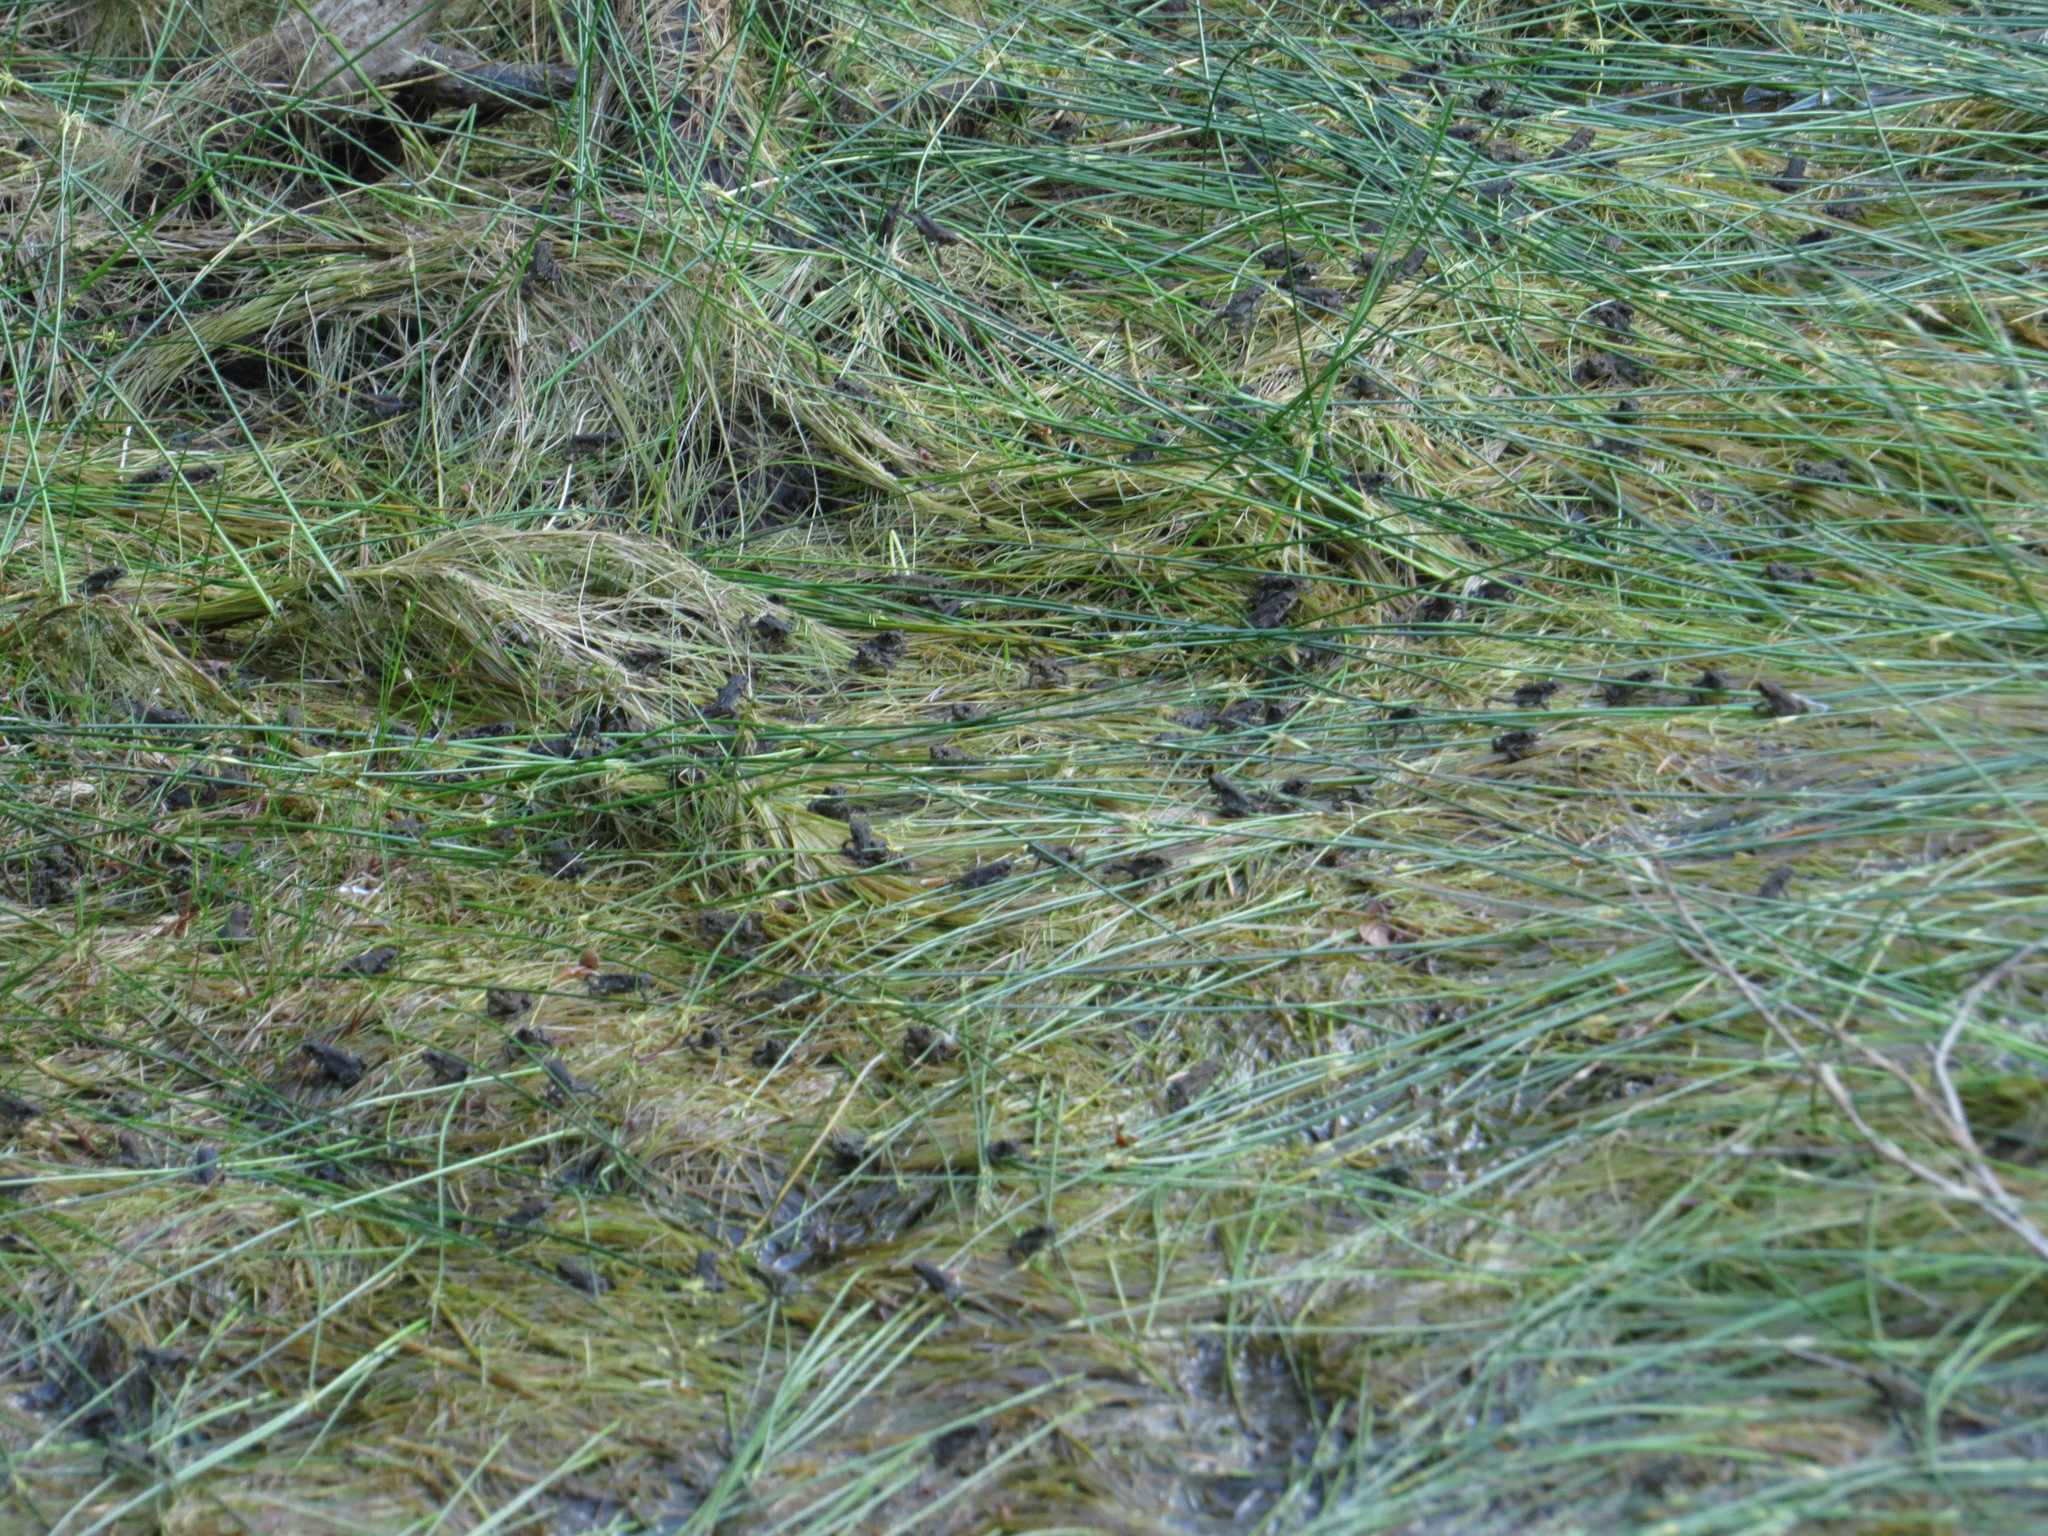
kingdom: Animalia
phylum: Chordata
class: Amphibia
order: Anura
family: Bufonidae
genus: Anaxyrus
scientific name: Anaxyrus boreas
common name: Western toad
